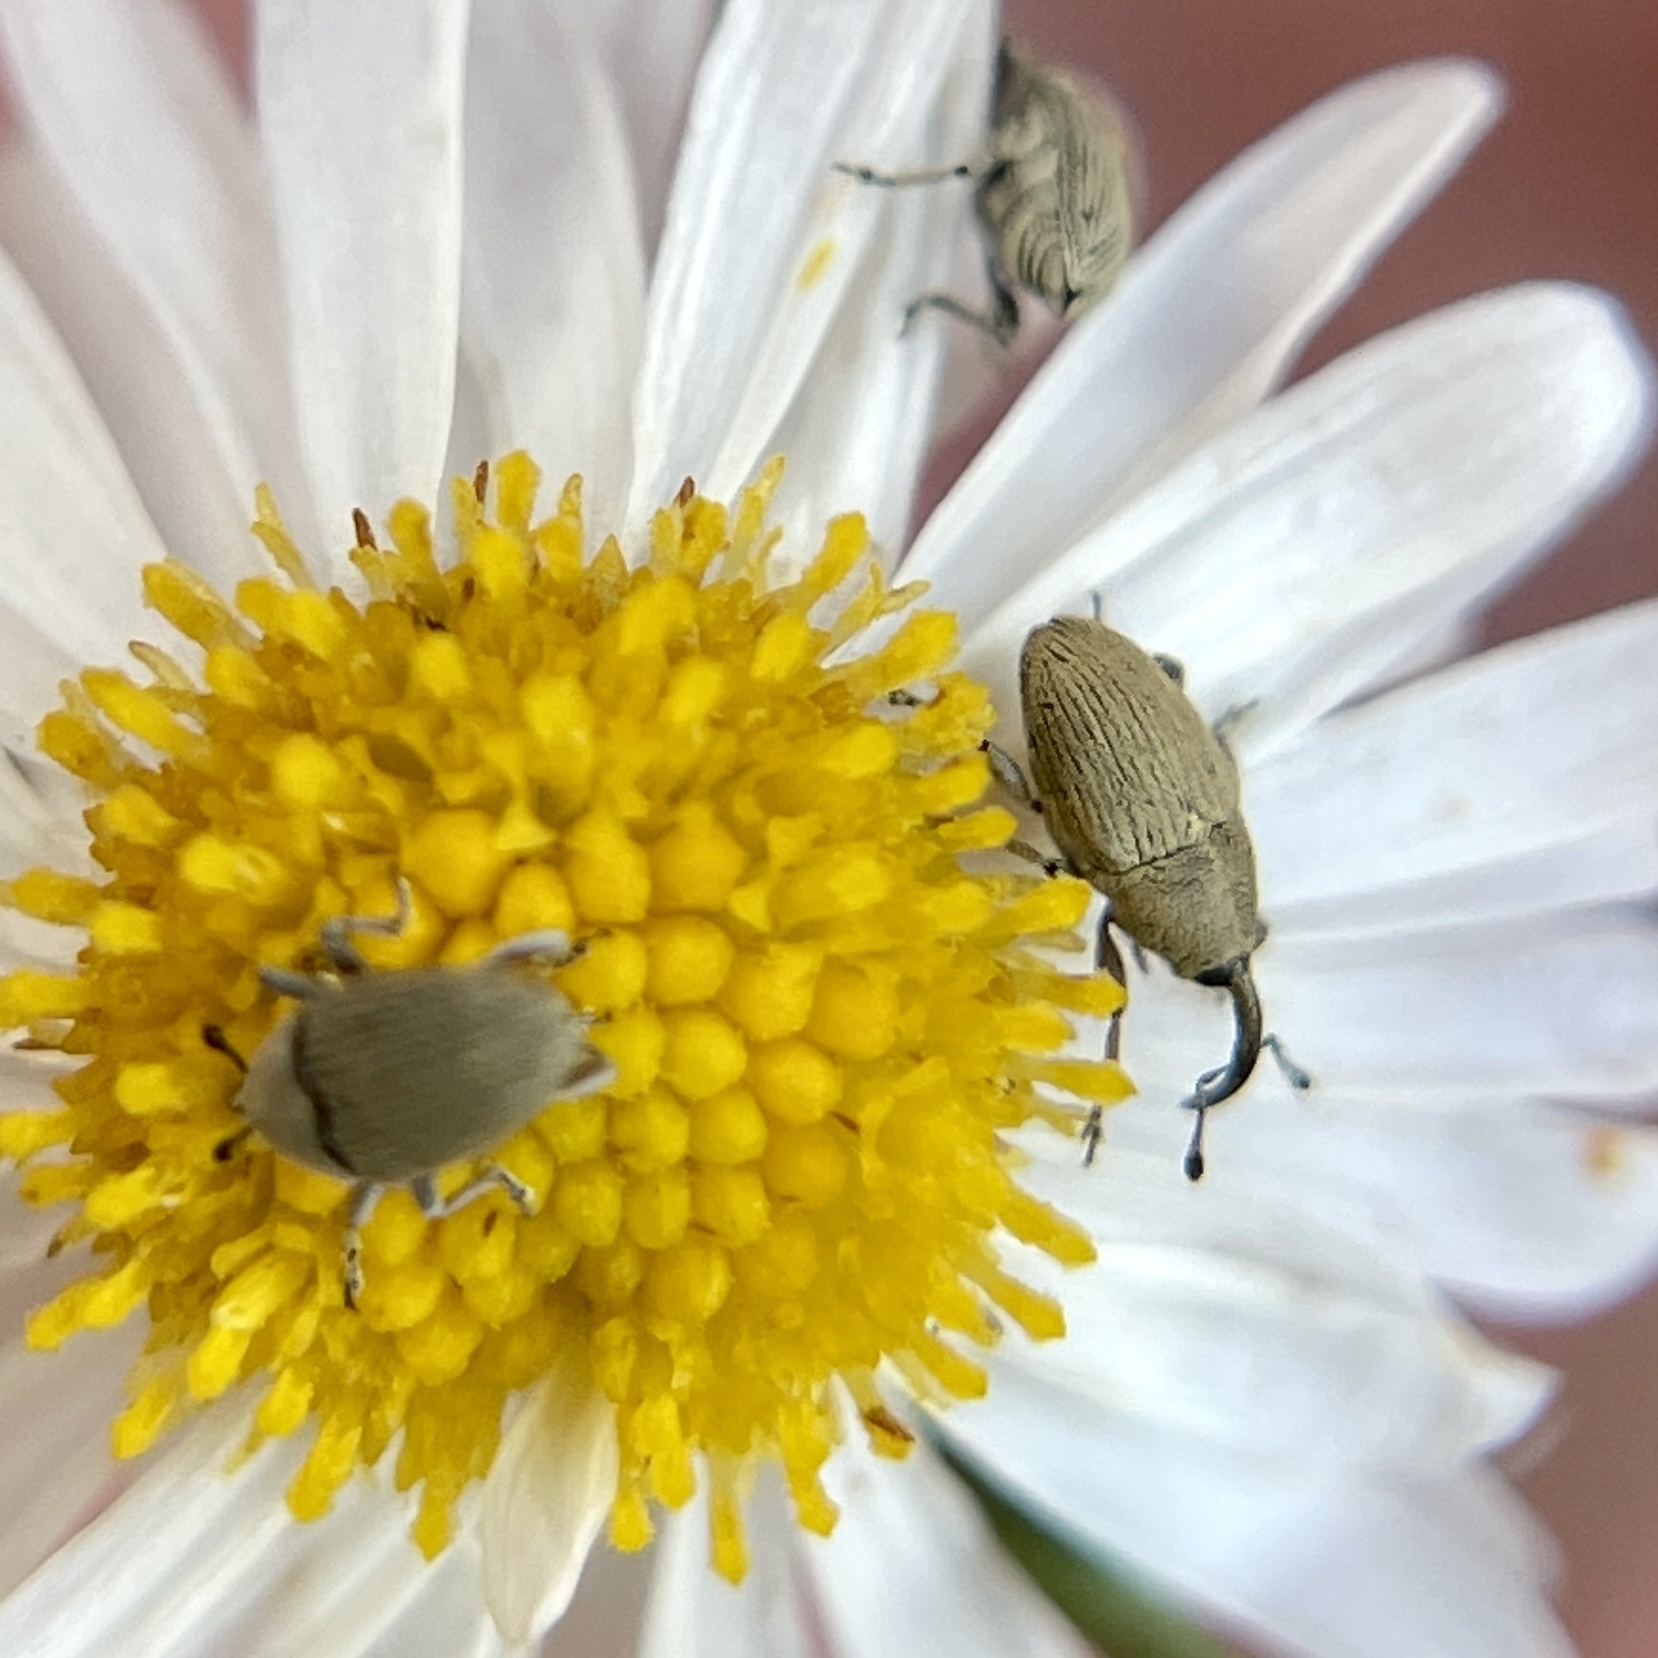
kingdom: Animalia
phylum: Arthropoda
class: Insecta
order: Coleoptera
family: Curculionidae
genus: Geraeus
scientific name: Geraeus picumnus
